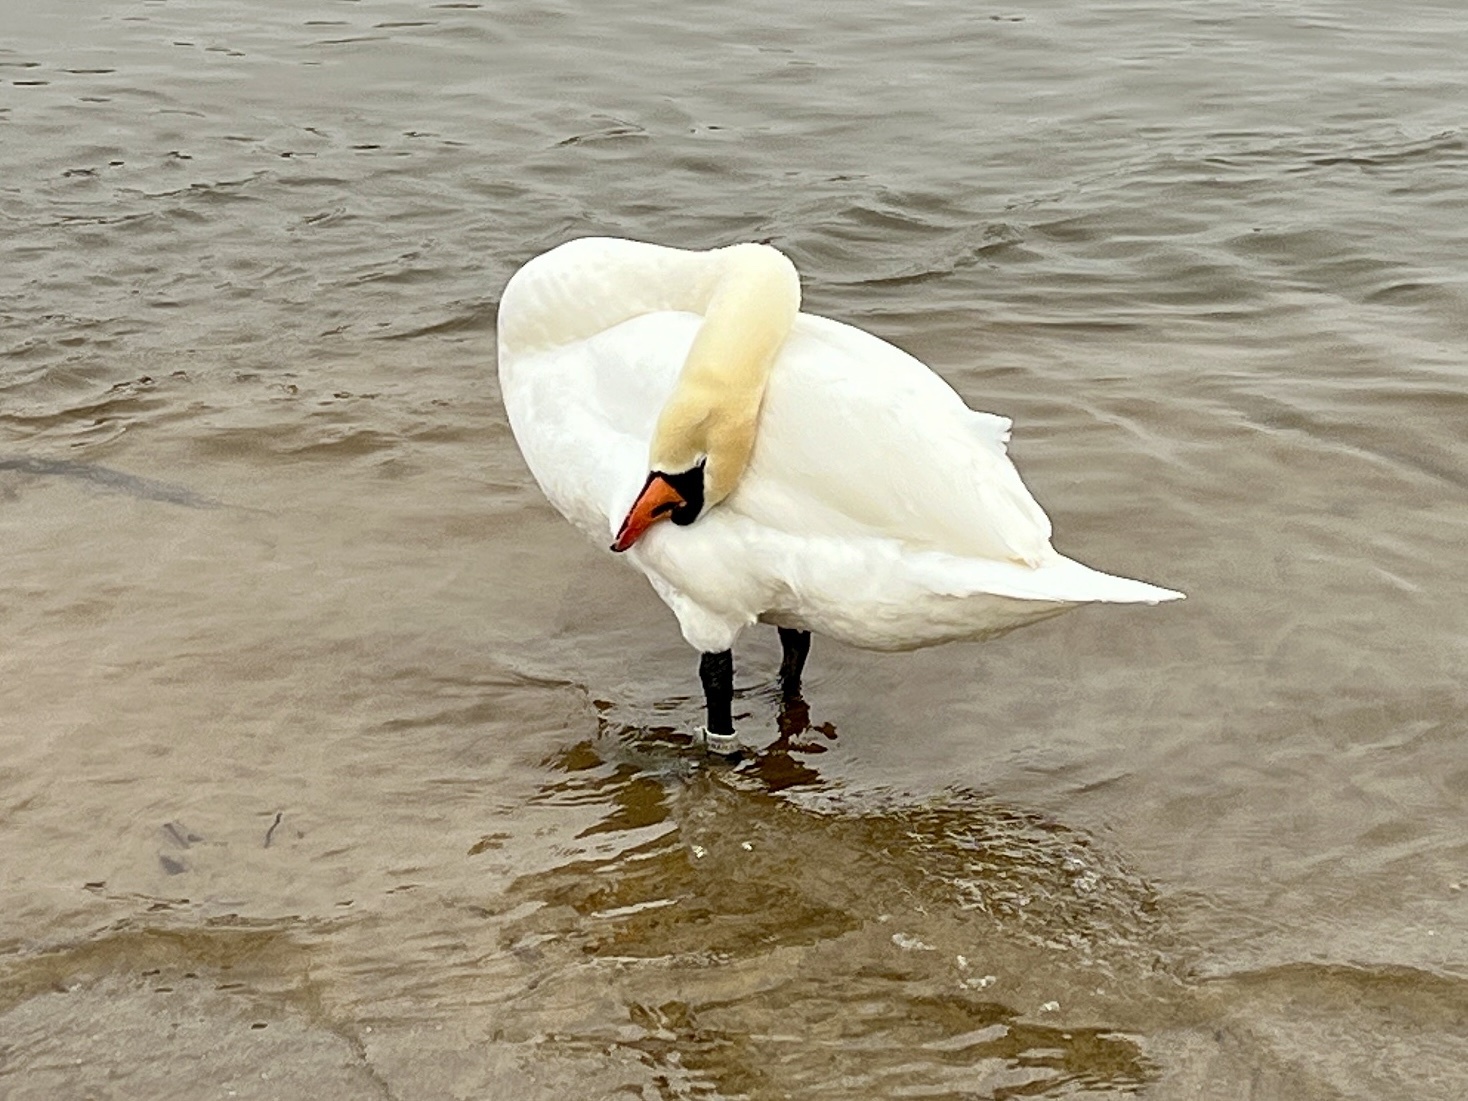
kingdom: Animalia
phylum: Chordata
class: Aves
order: Anseriformes
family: Anatidae
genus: Cygnus
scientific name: Cygnus olor
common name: Mute swan
